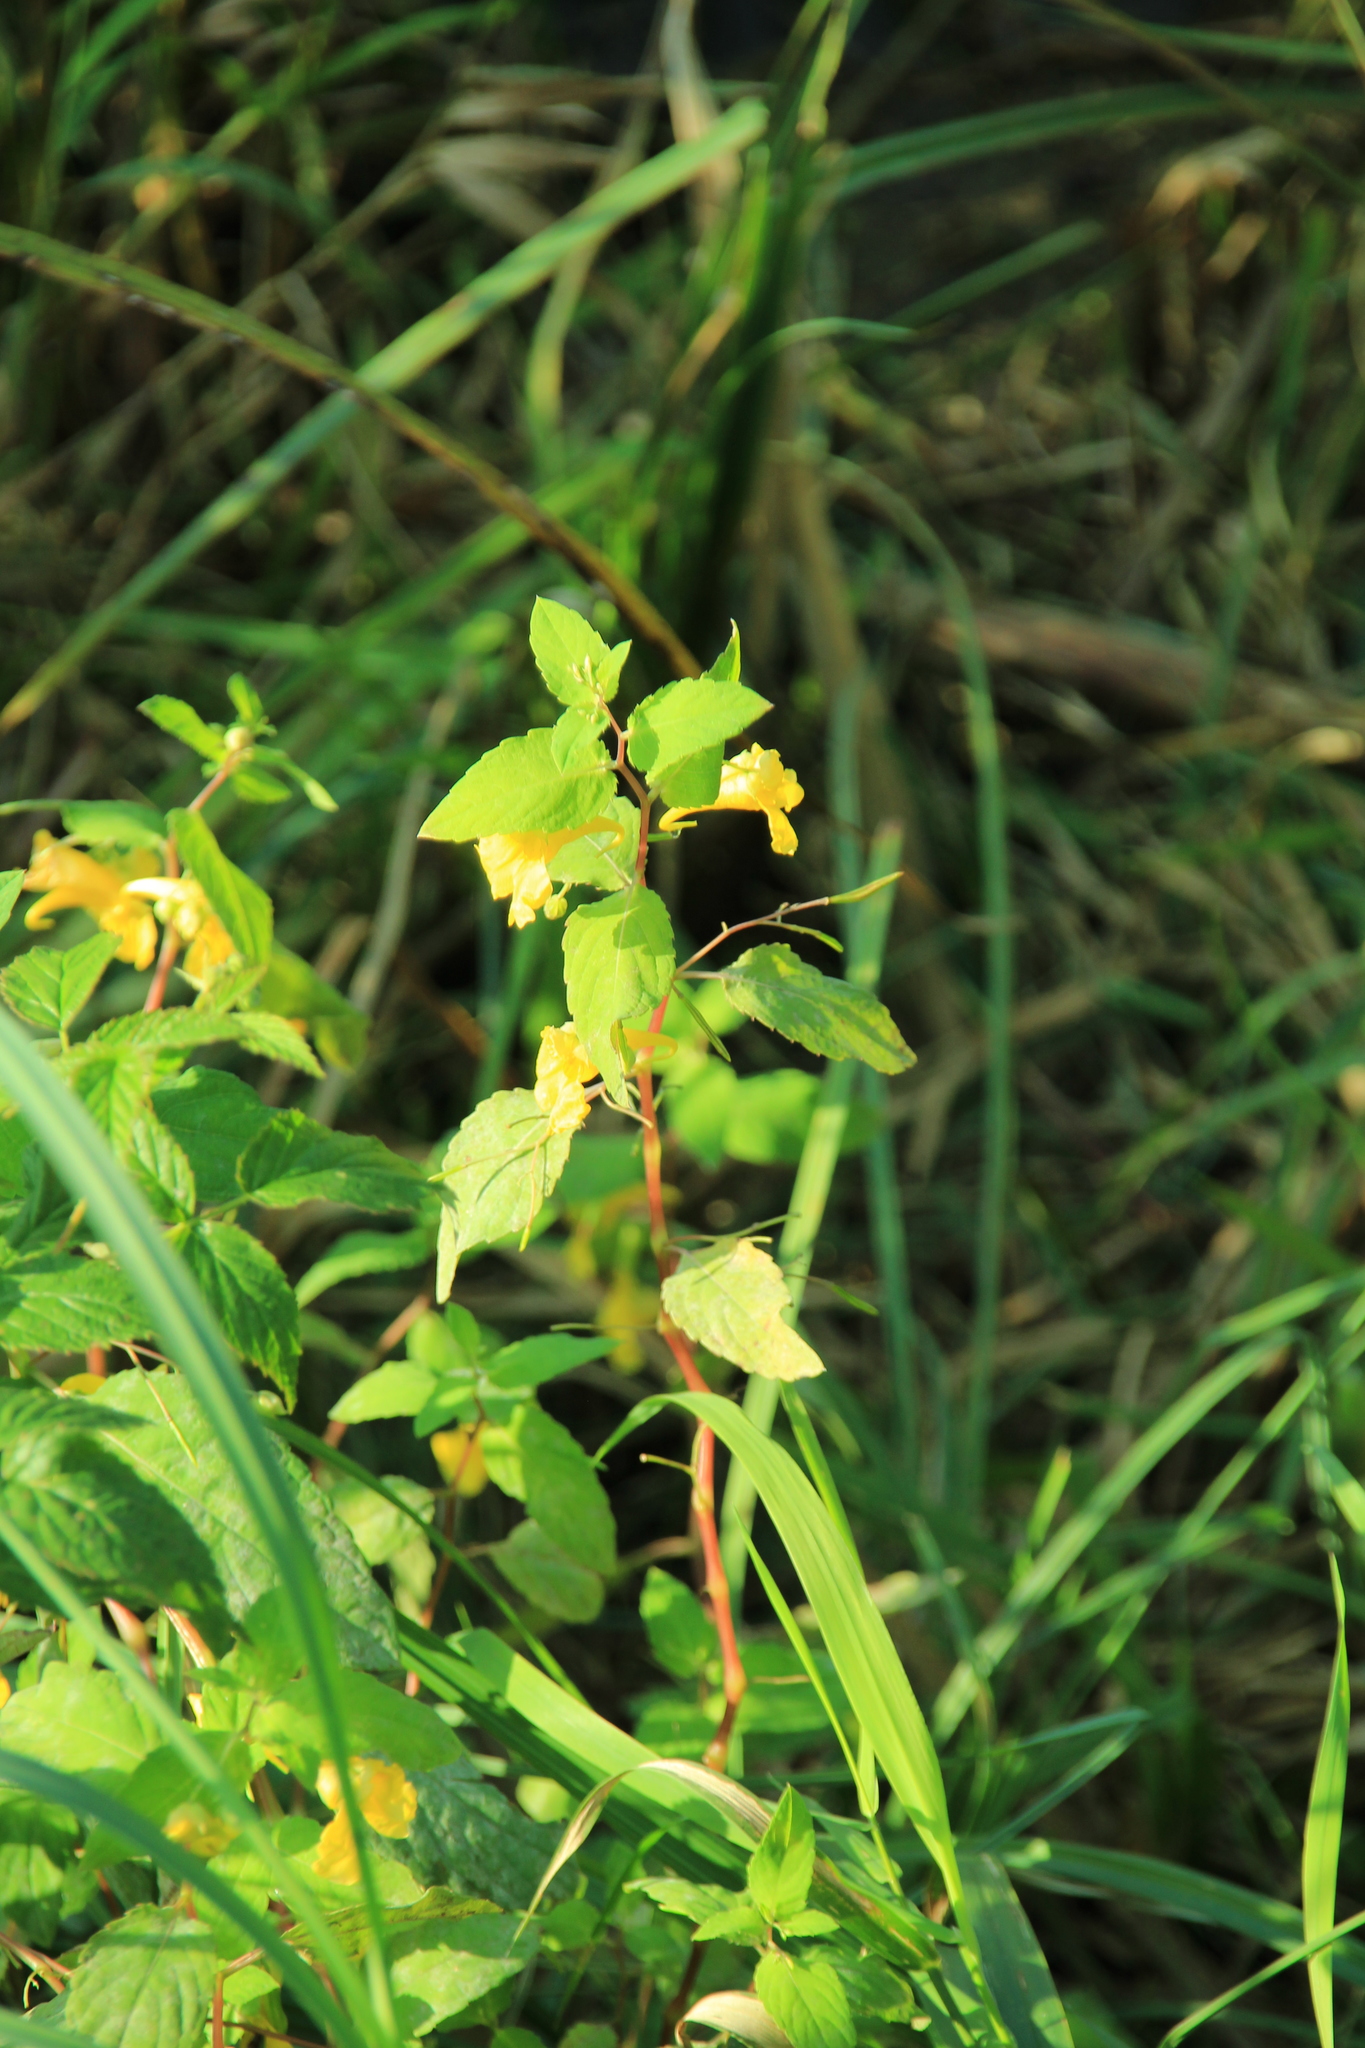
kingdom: Plantae
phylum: Tracheophyta
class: Magnoliopsida
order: Ericales
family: Balsaminaceae
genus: Impatiens
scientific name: Impatiens noli-tangere
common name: Touch-me-not balsam
